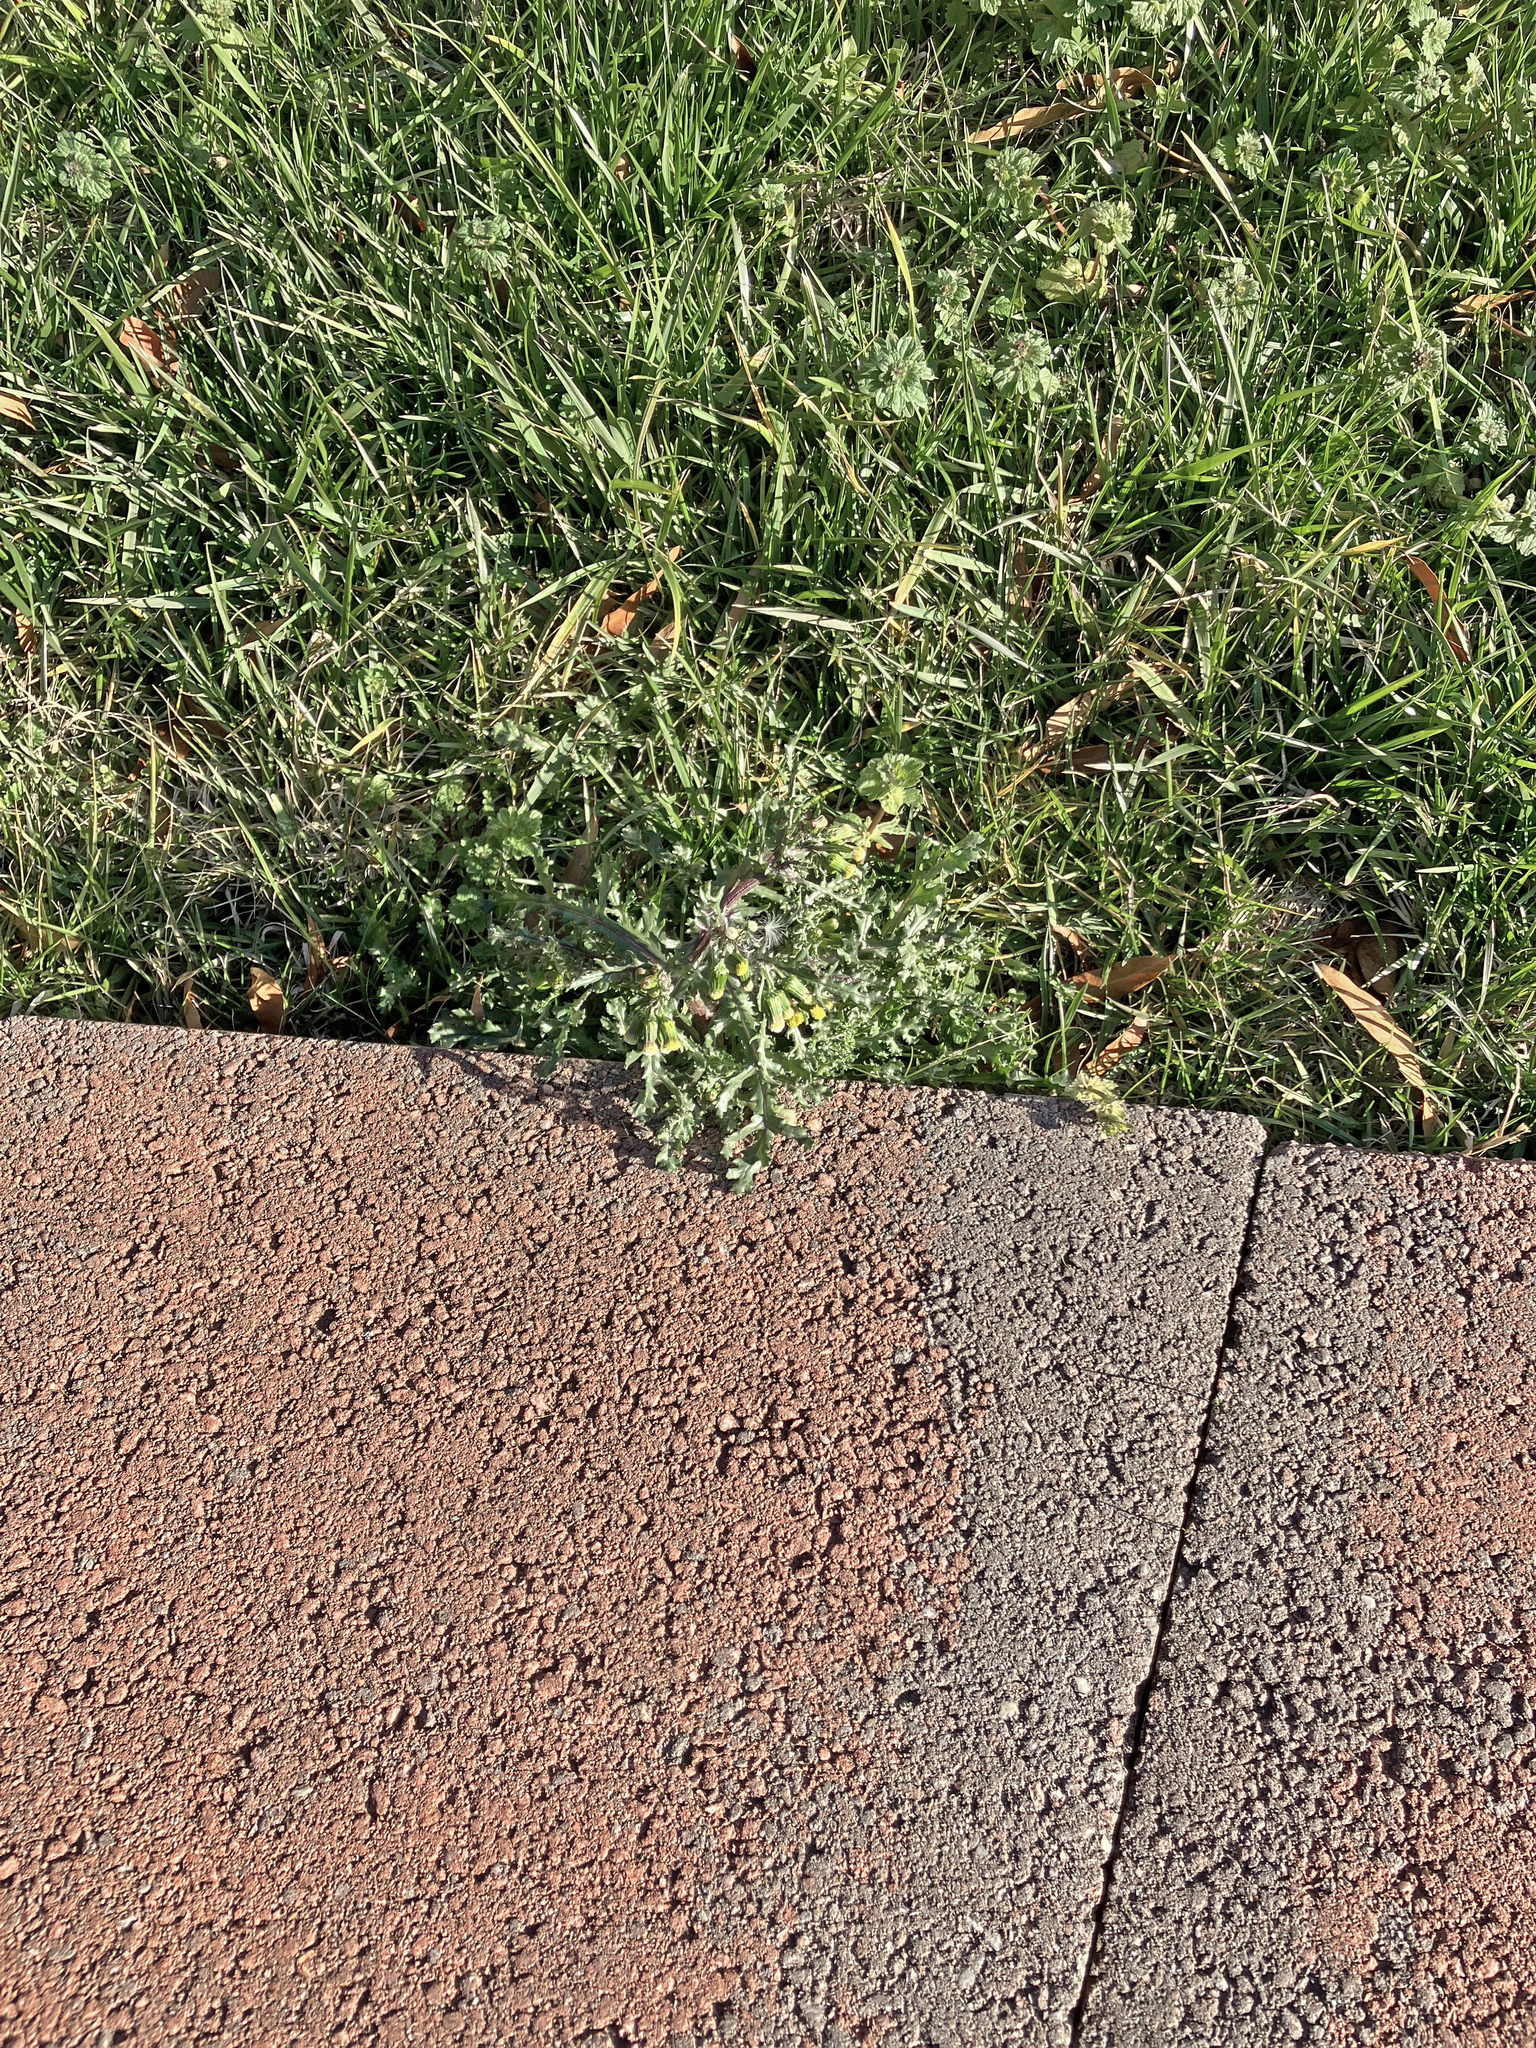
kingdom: Plantae
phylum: Tracheophyta
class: Magnoliopsida
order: Asterales
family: Asteraceae
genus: Senecio
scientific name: Senecio vulgaris
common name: Old-man-in-the-spring
